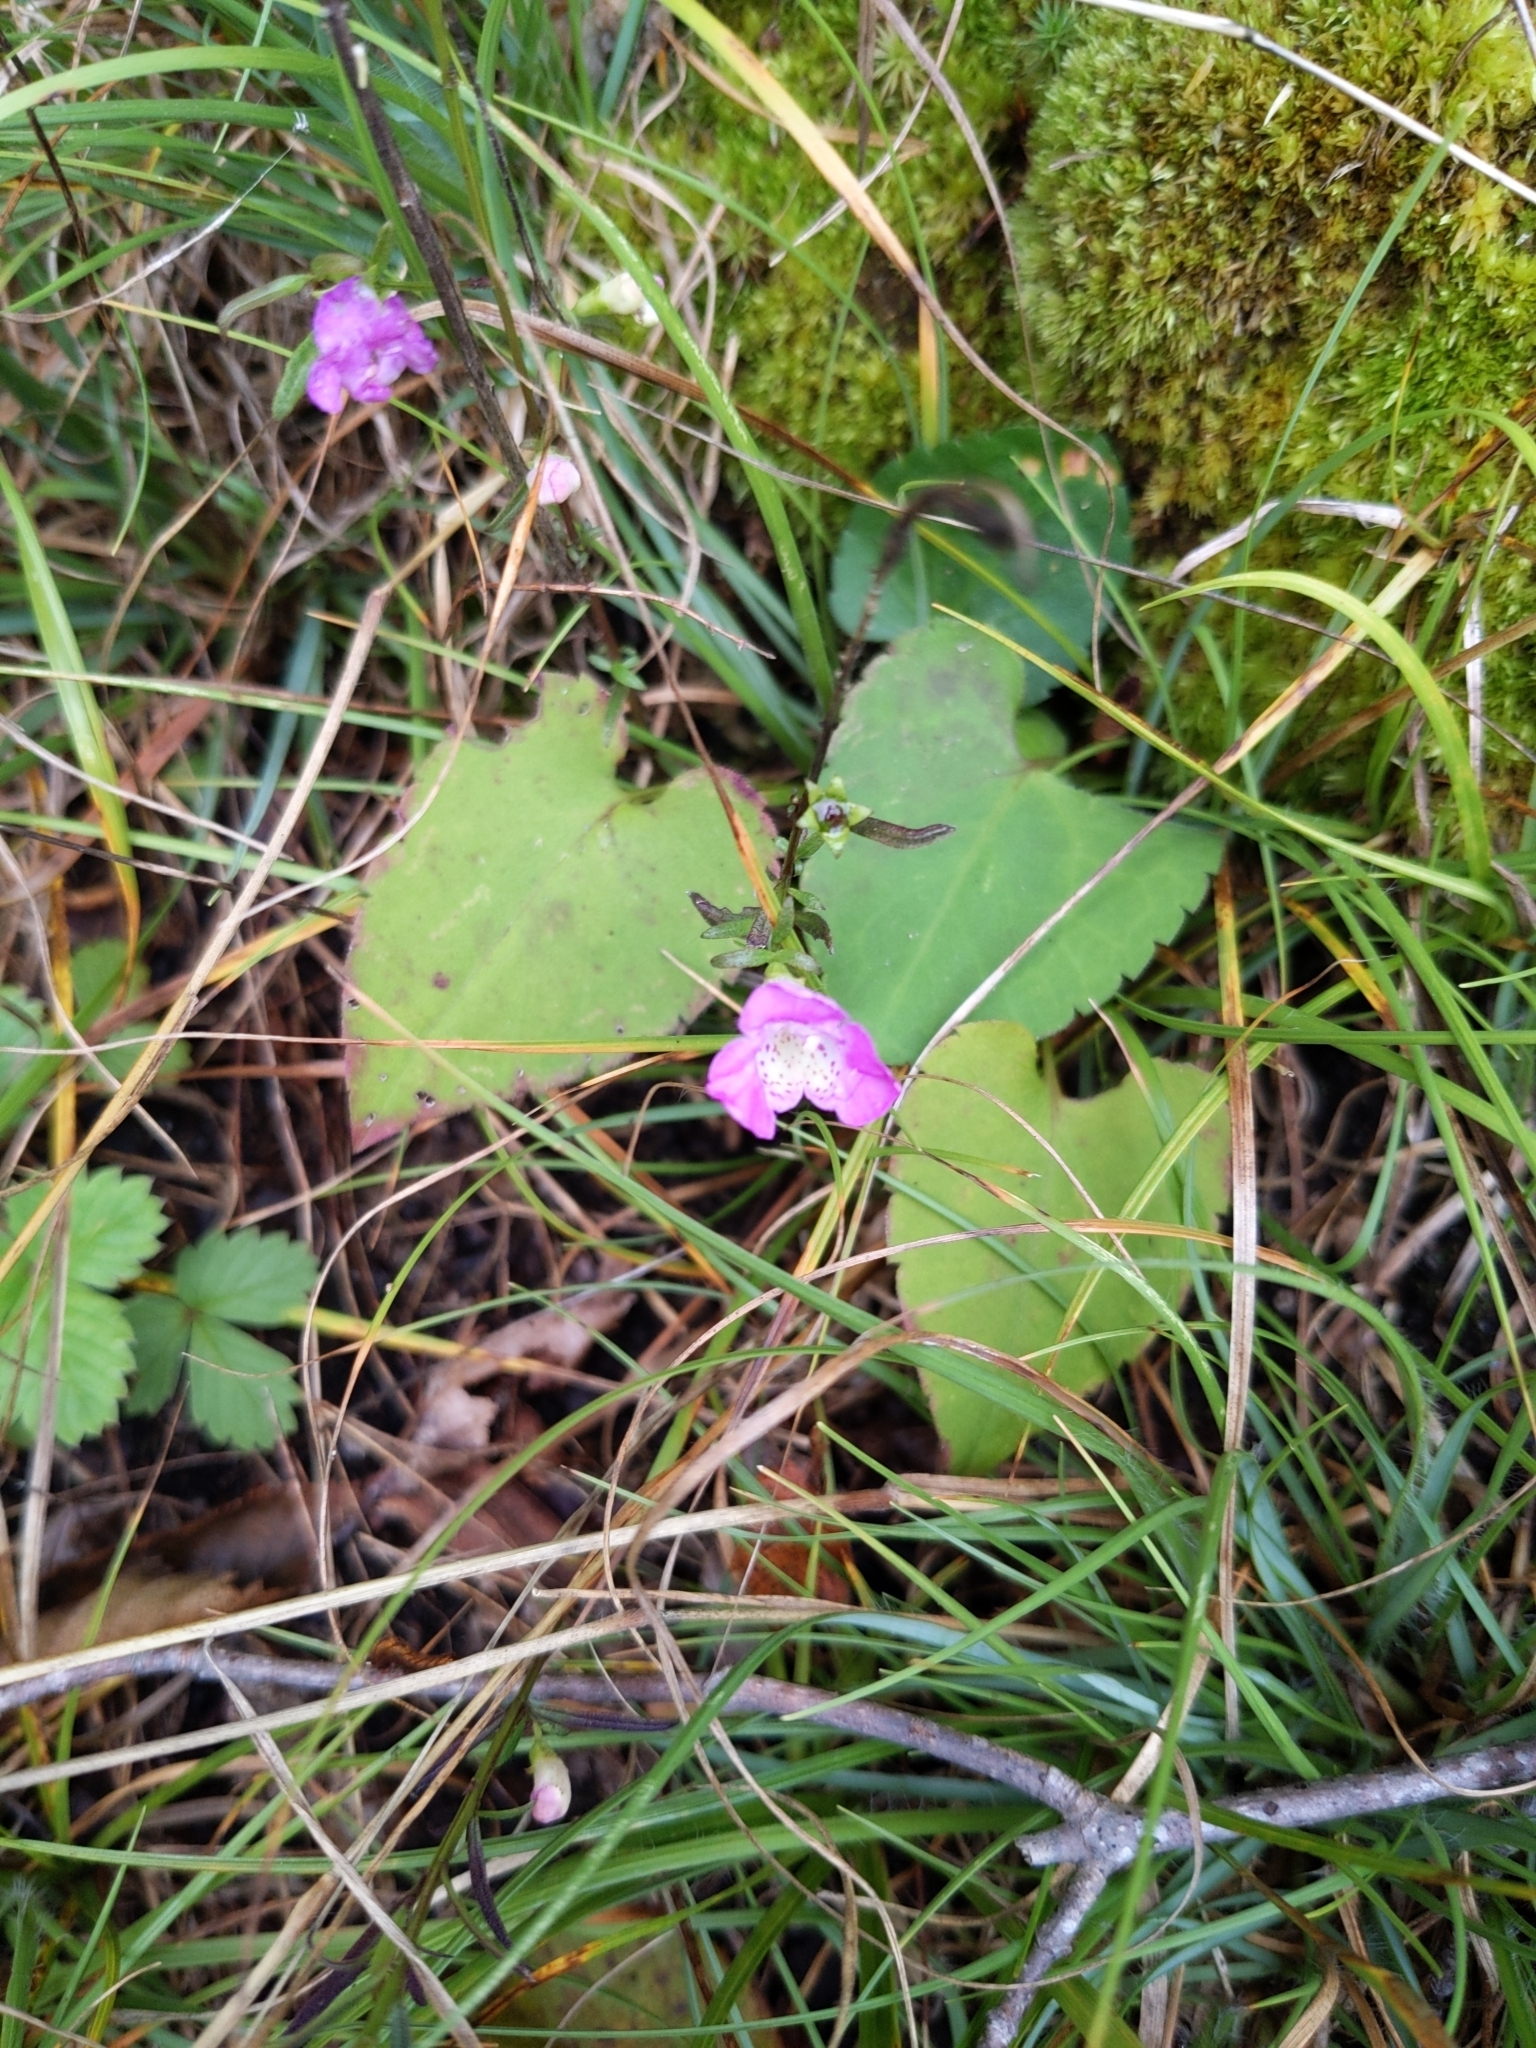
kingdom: Plantae
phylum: Tracheophyta
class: Magnoliopsida
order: Lamiales
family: Orobanchaceae
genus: Agalinis
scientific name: Agalinis purpurea
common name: Purple false foxglove
